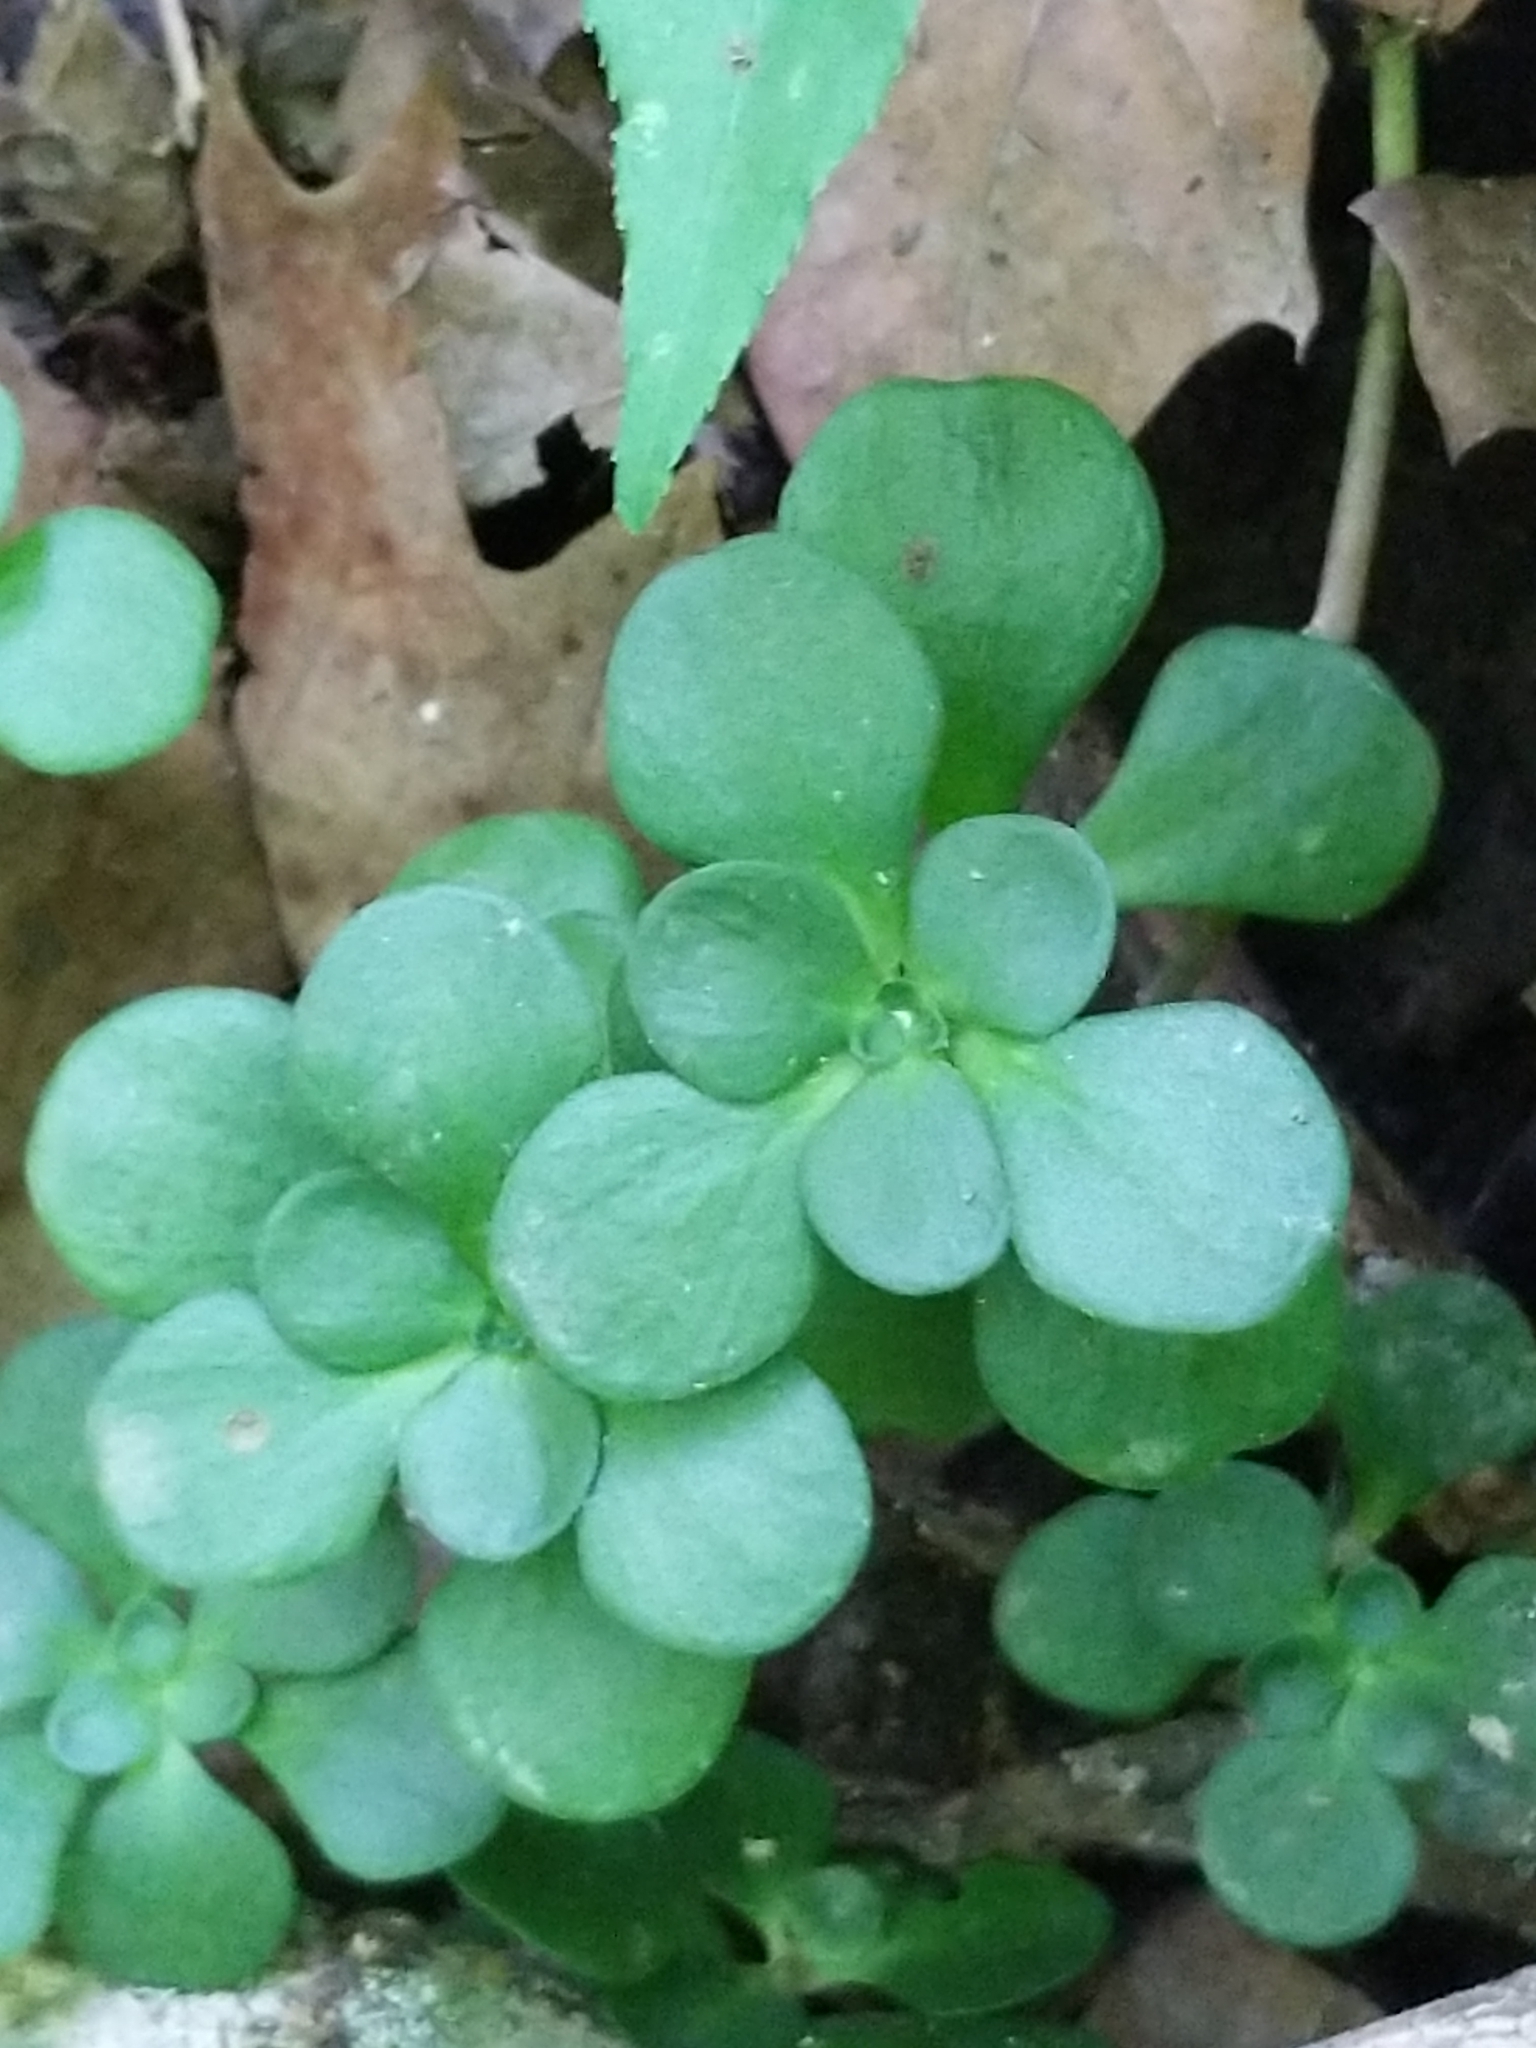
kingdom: Plantae
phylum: Tracheophyta
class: Magnoliopsida
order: Saxifragales
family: Crassulaceae
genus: Sedum
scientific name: Sedum ternatum
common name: Wild stonecrop
